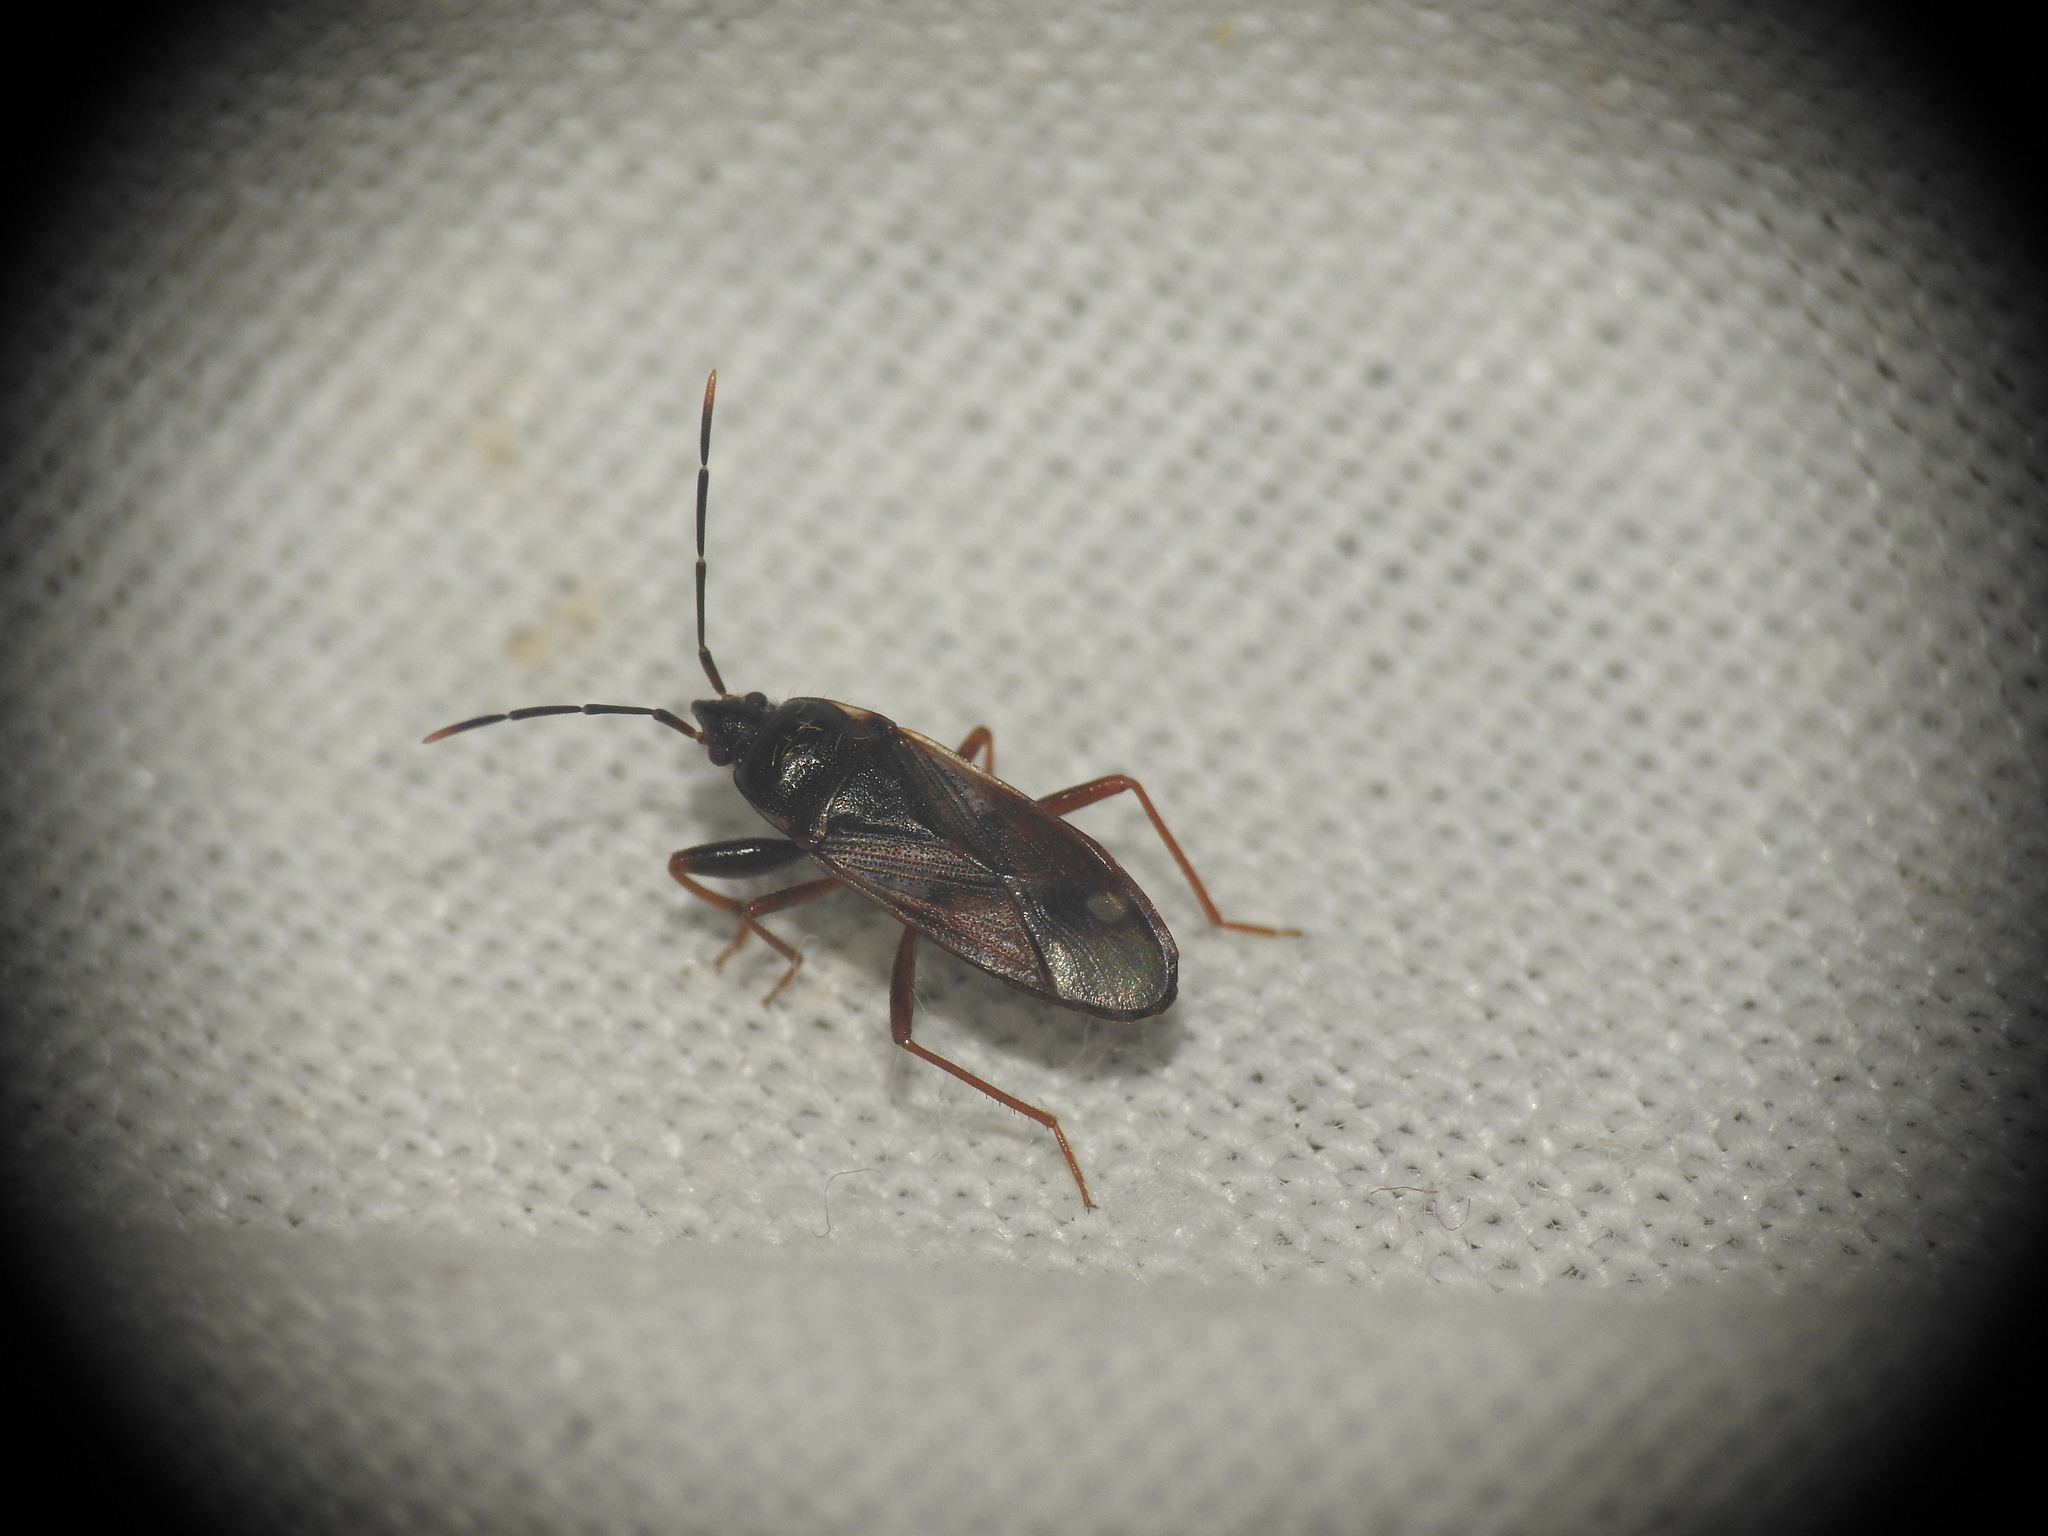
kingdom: Animalia
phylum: Arthropoda
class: Insecta
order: Hemiptera
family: Rhyparochromidae
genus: Eremocoris
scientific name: Eremocoris fenestratus
